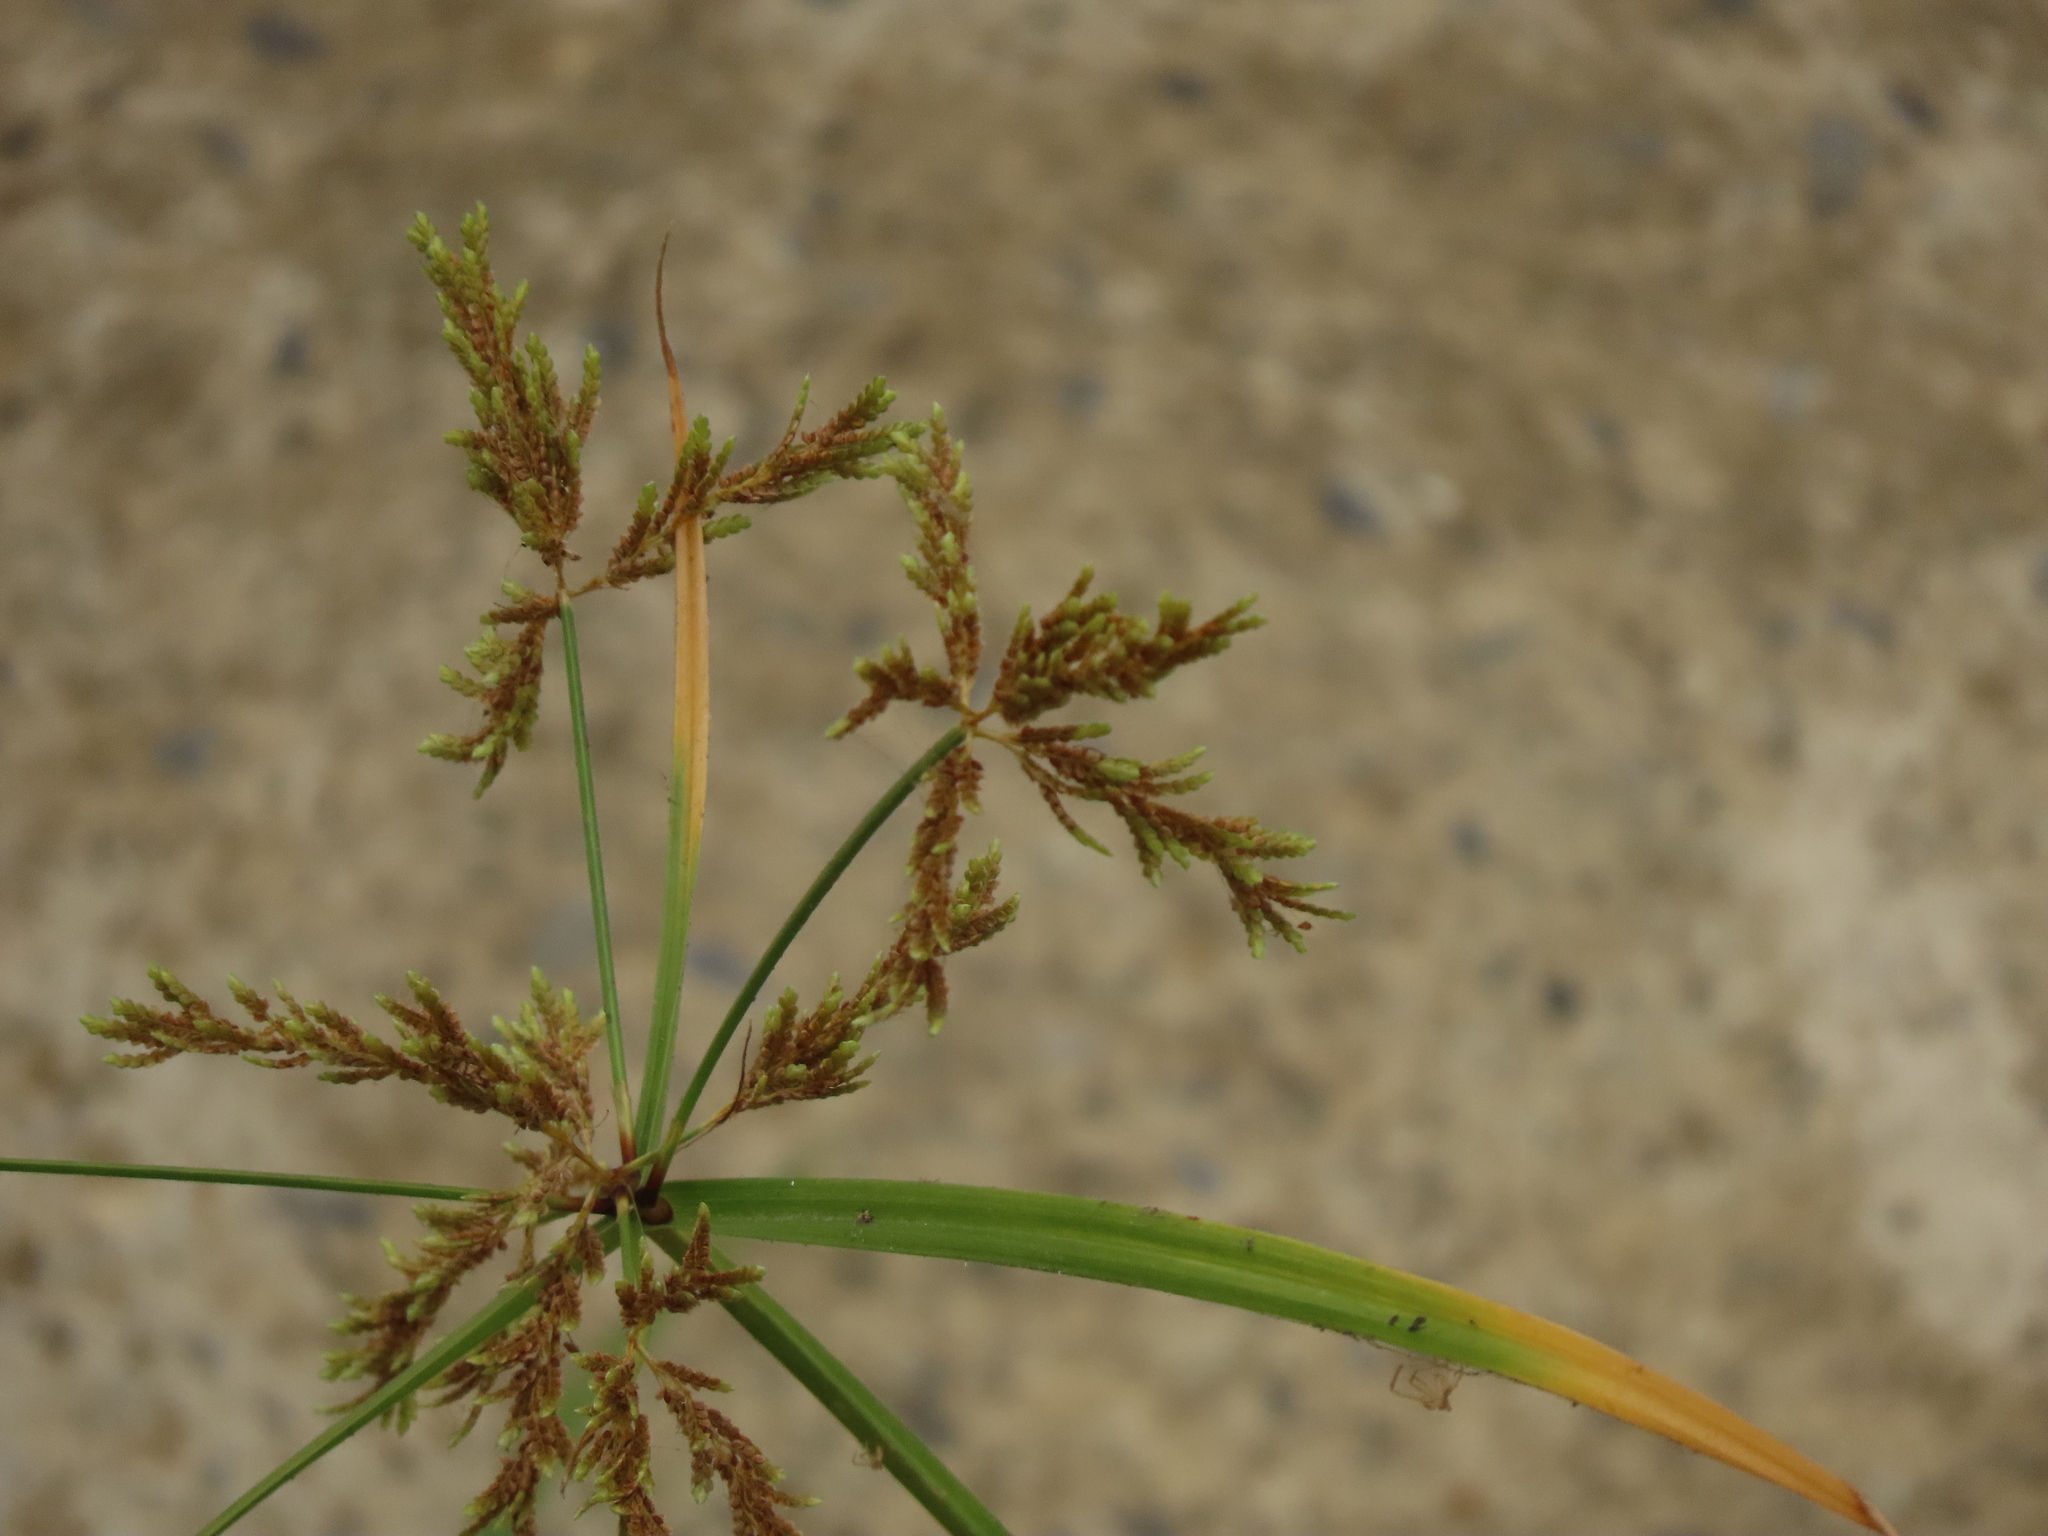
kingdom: Plantae
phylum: Tracheophyta
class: Liliopsida
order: Poales
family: Cyperaceae
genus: Cyperus
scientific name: Cyperus iria
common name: Ricefield flatsedge
